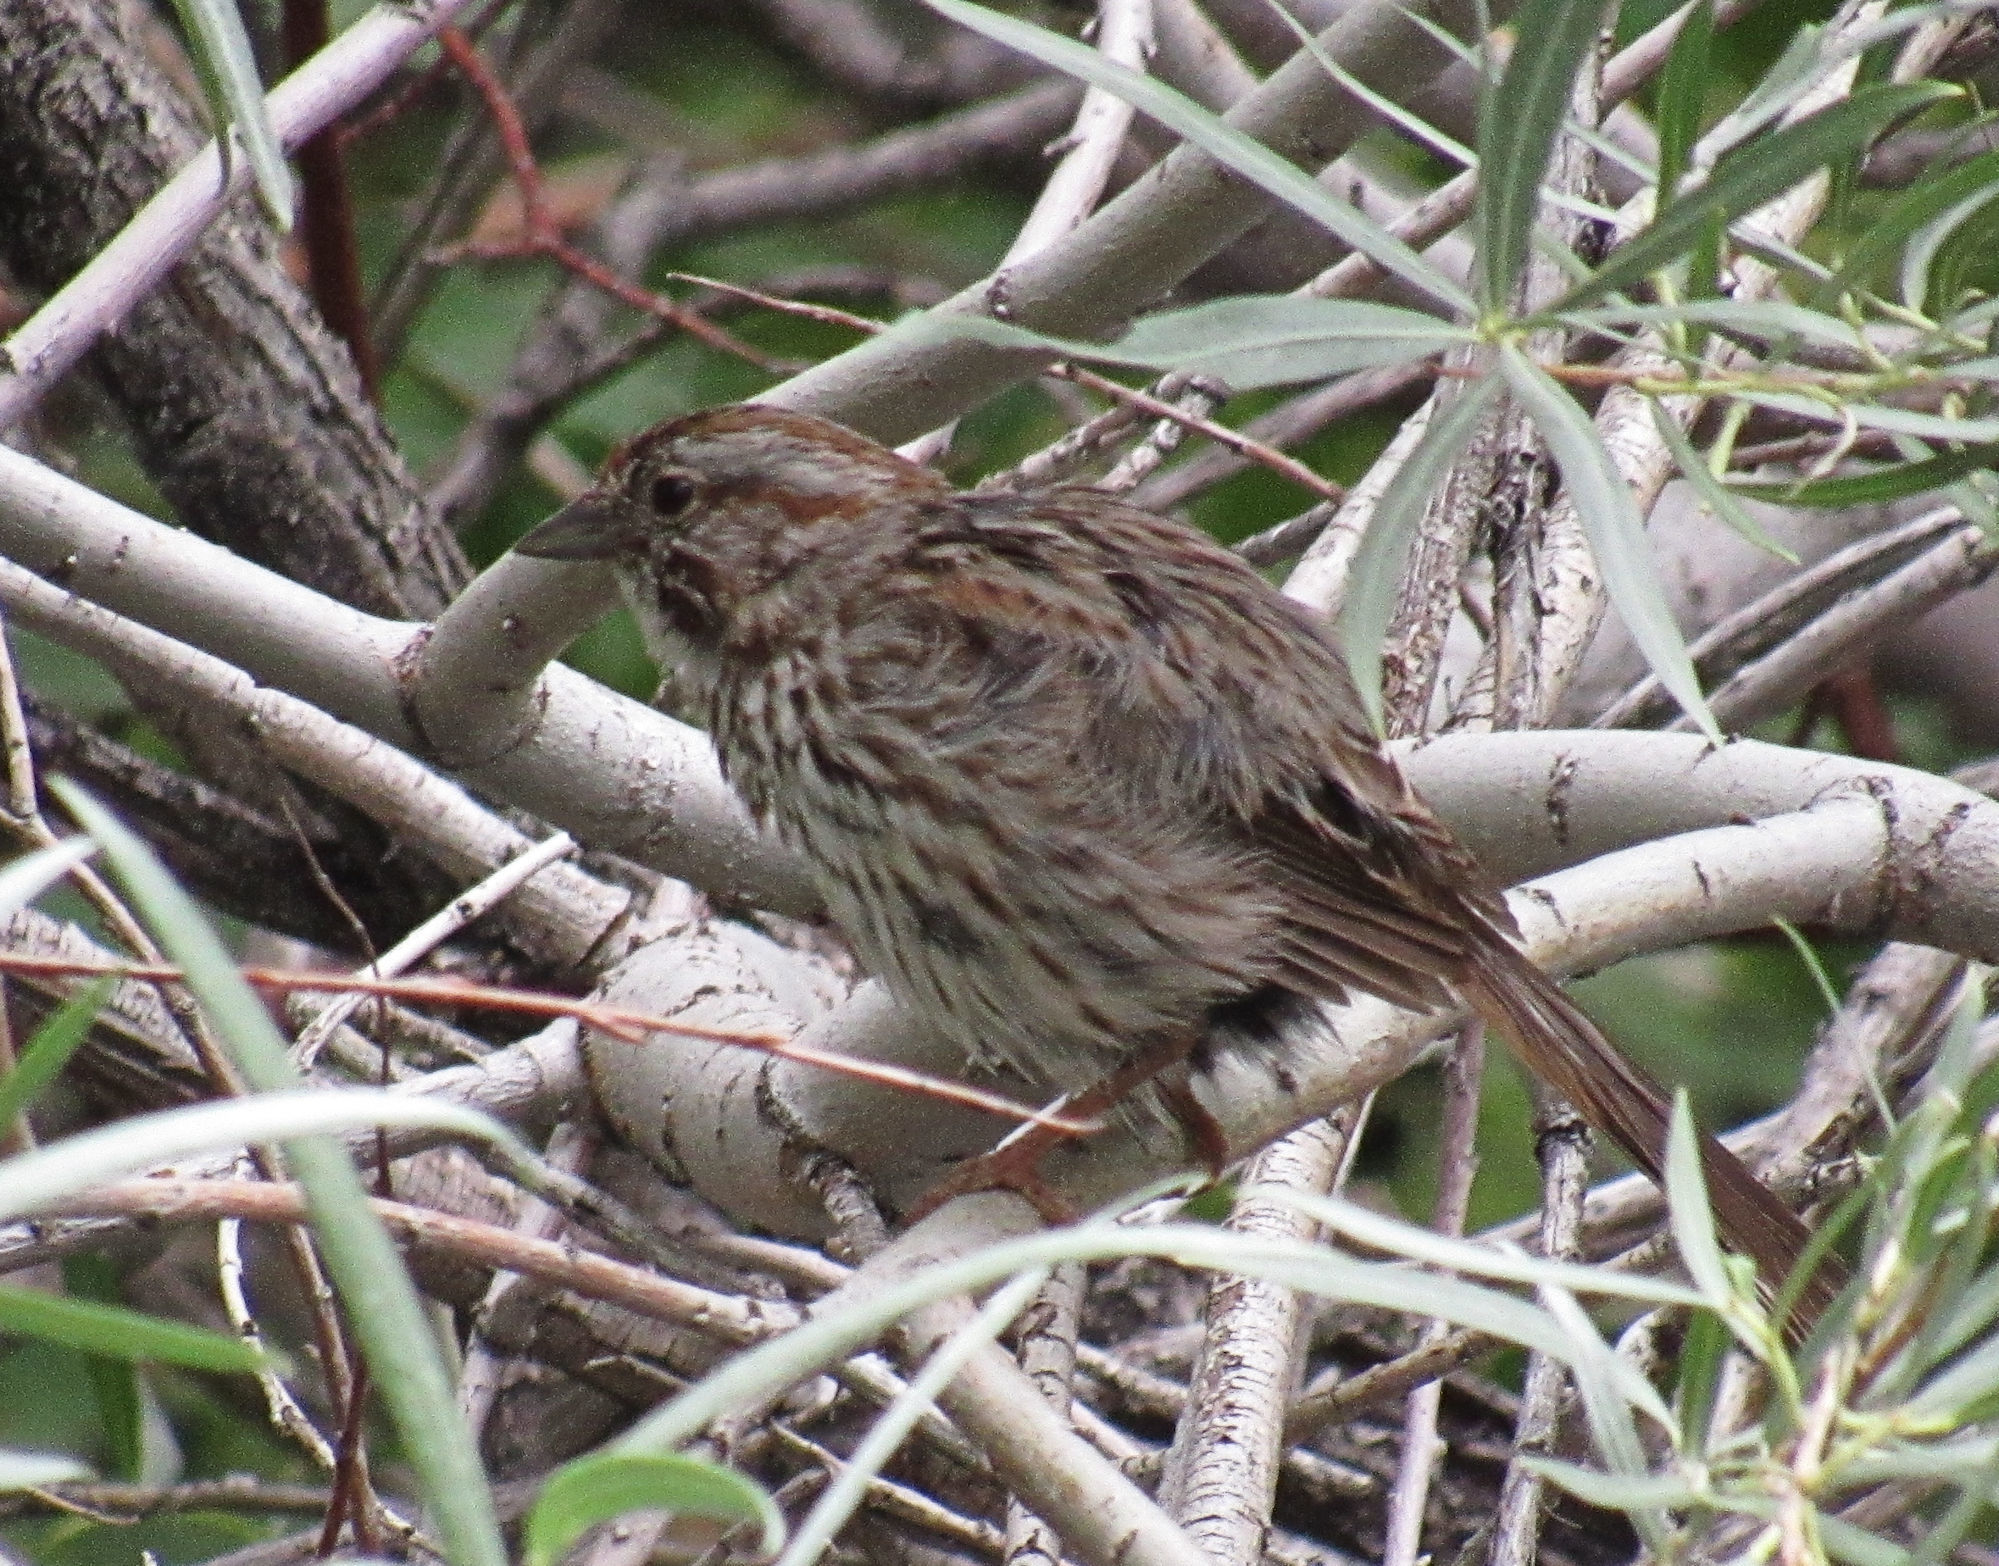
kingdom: Animalia
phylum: Chordata
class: Aves
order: Passeriformes
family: Passerellidae
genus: Melospiza
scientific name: Melospiza melodia
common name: Song sparrow
